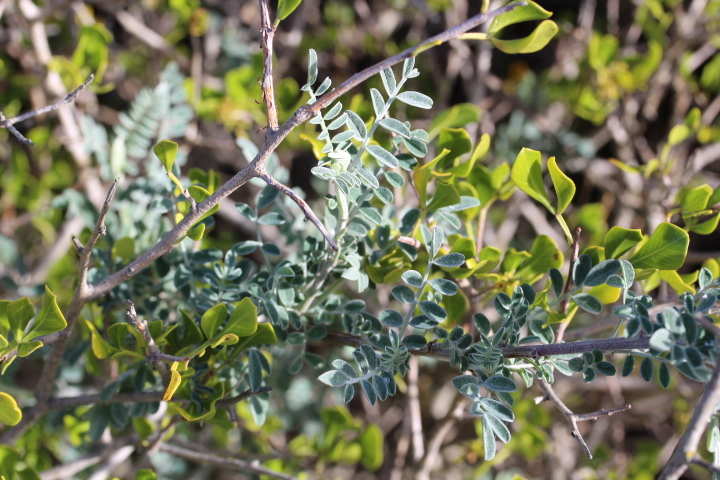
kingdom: Plantae
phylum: Tracheophyta
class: Magnoliopsida
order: Fabales
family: Fabaceae
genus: Lessertia
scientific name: Lessertia frutescens
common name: Balloon-pea
